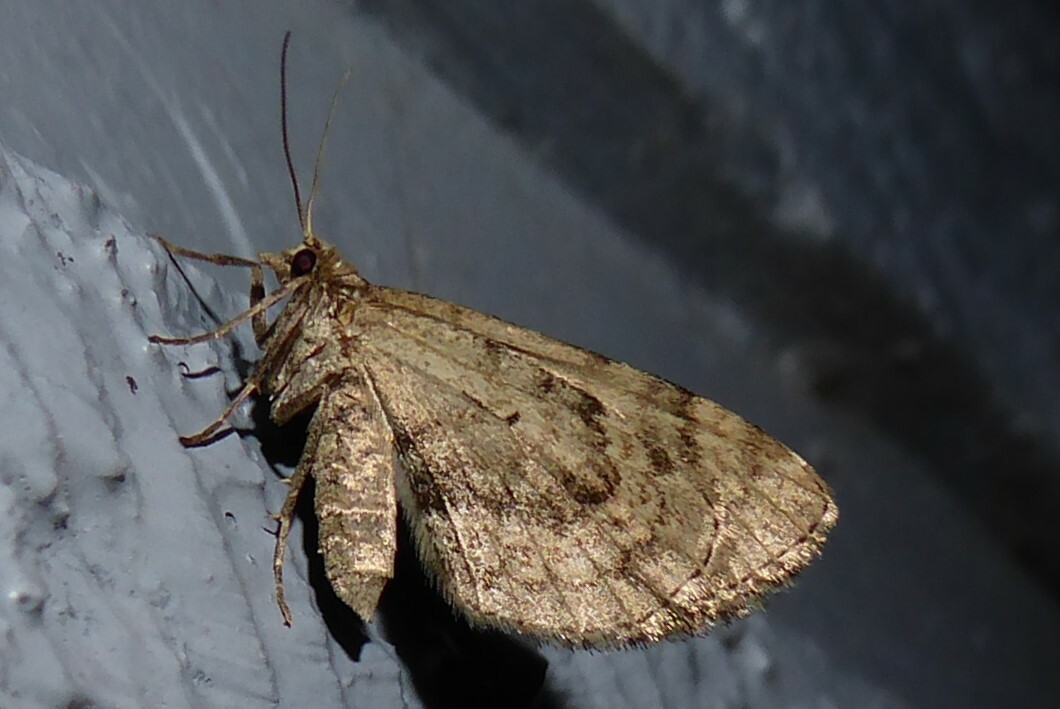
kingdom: Animalia
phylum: Arthropoda
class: Insecta
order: Lepidoptera
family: Geometridae
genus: Asaphodes
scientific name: Asaphodes aegrota
